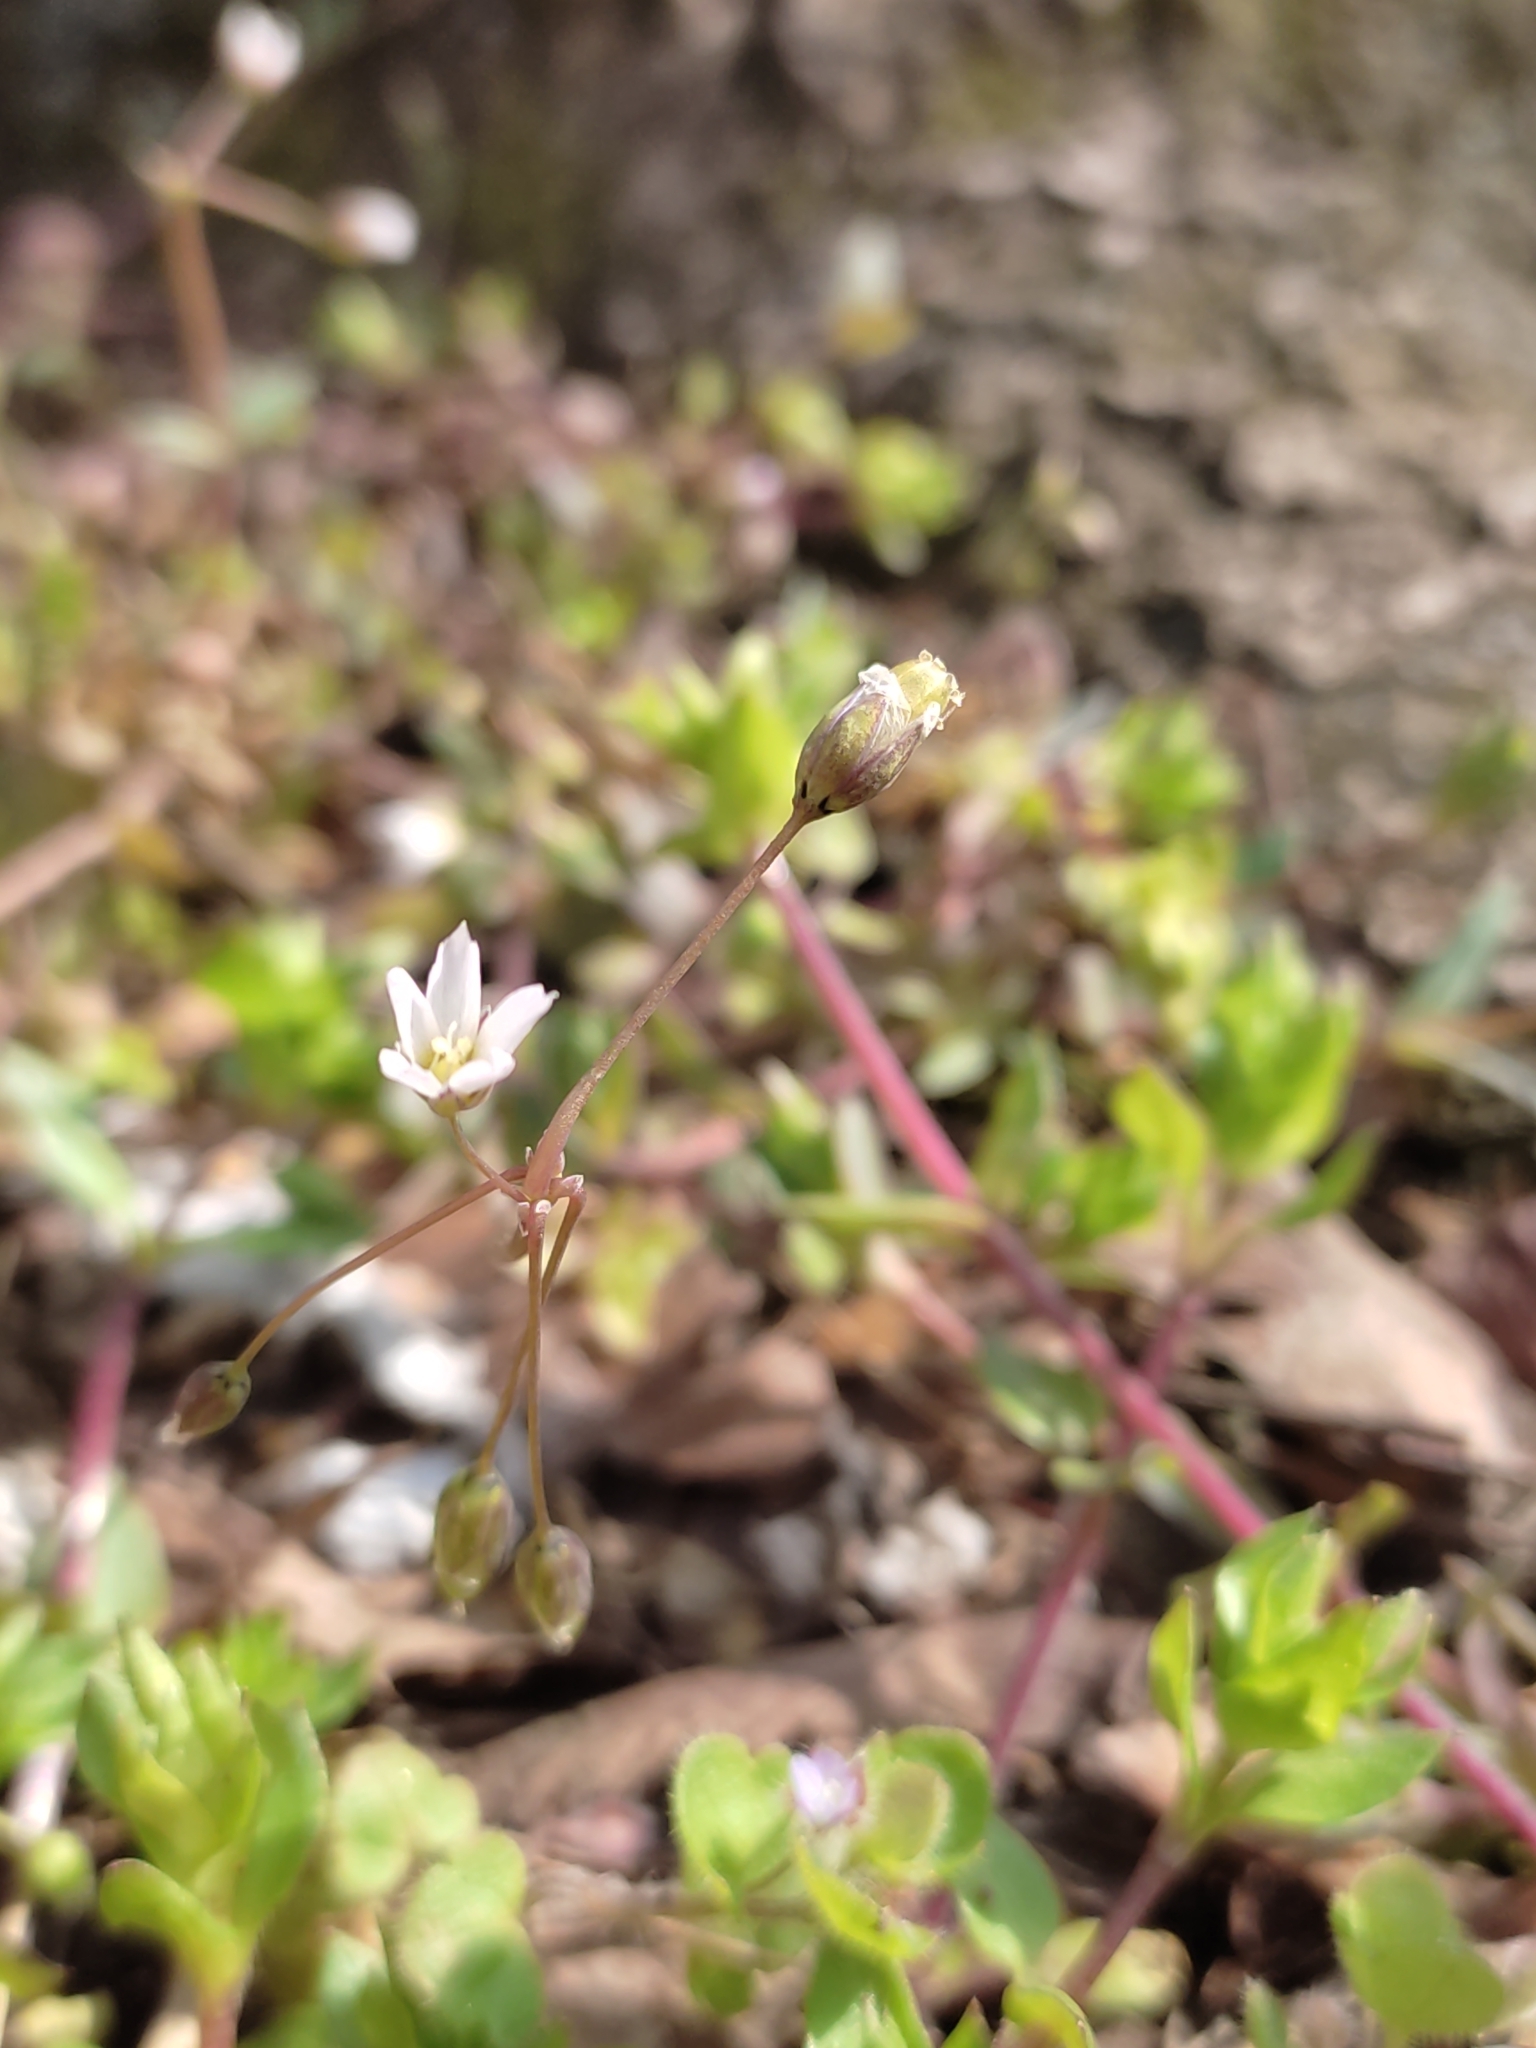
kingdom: Plantae
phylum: Tracheophyta
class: Magnoliopsida
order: Caryophyllales
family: Caryophyllaceae
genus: Holosteum
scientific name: Holosteum umbellatum
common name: Jagged chickweed
